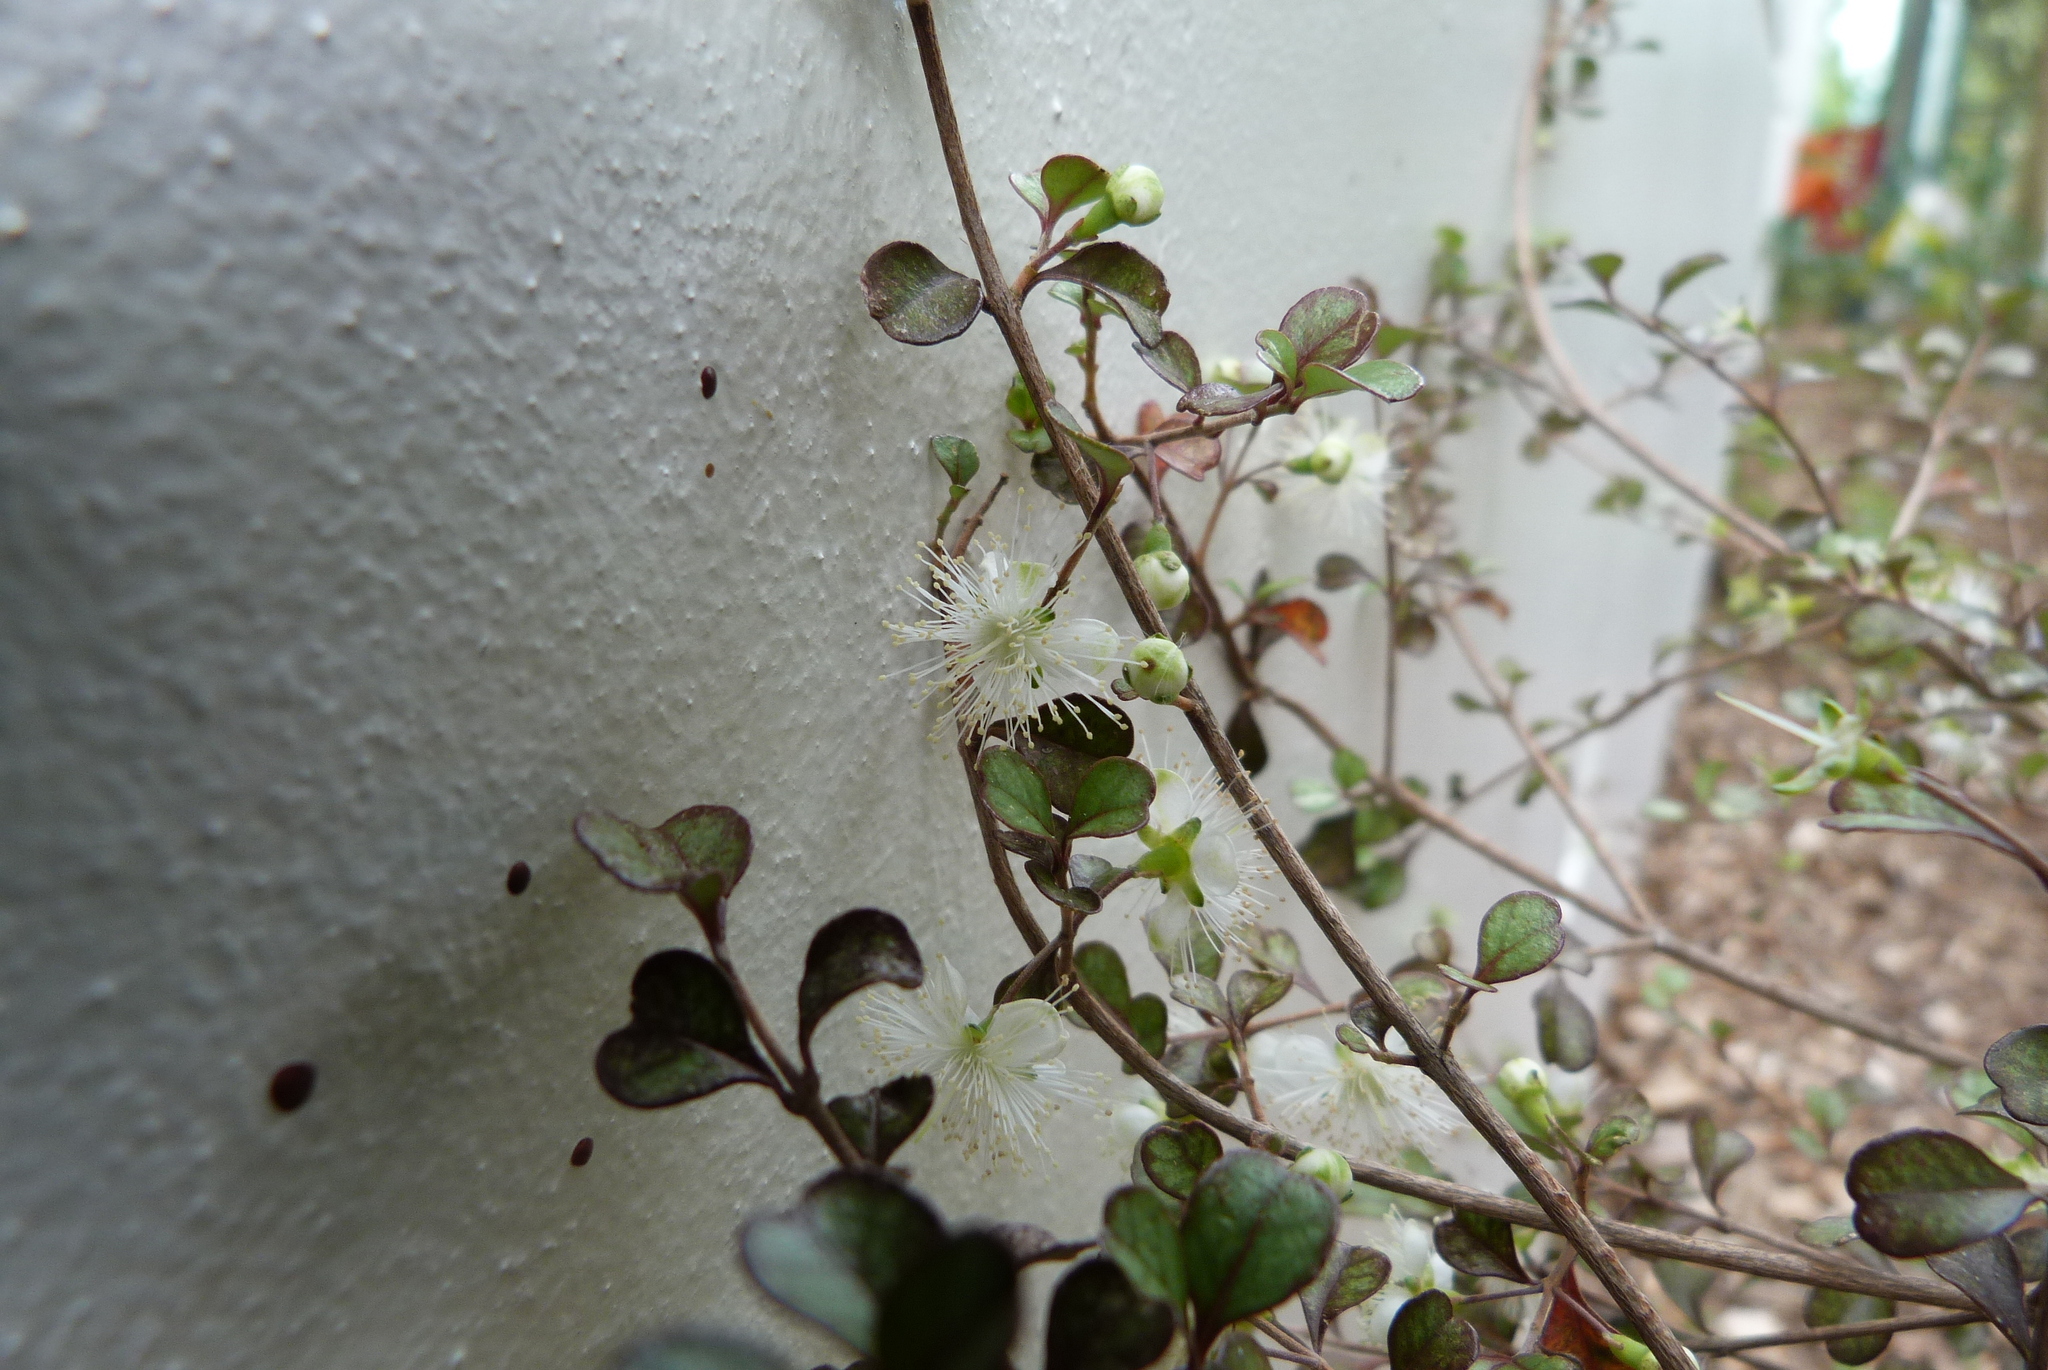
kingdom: Plantae
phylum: Tracheophyta
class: Magnoliopsida
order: Myrtales
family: Myrtaceae
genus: Lophomyrtus
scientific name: Lophomyrtus obcordata
